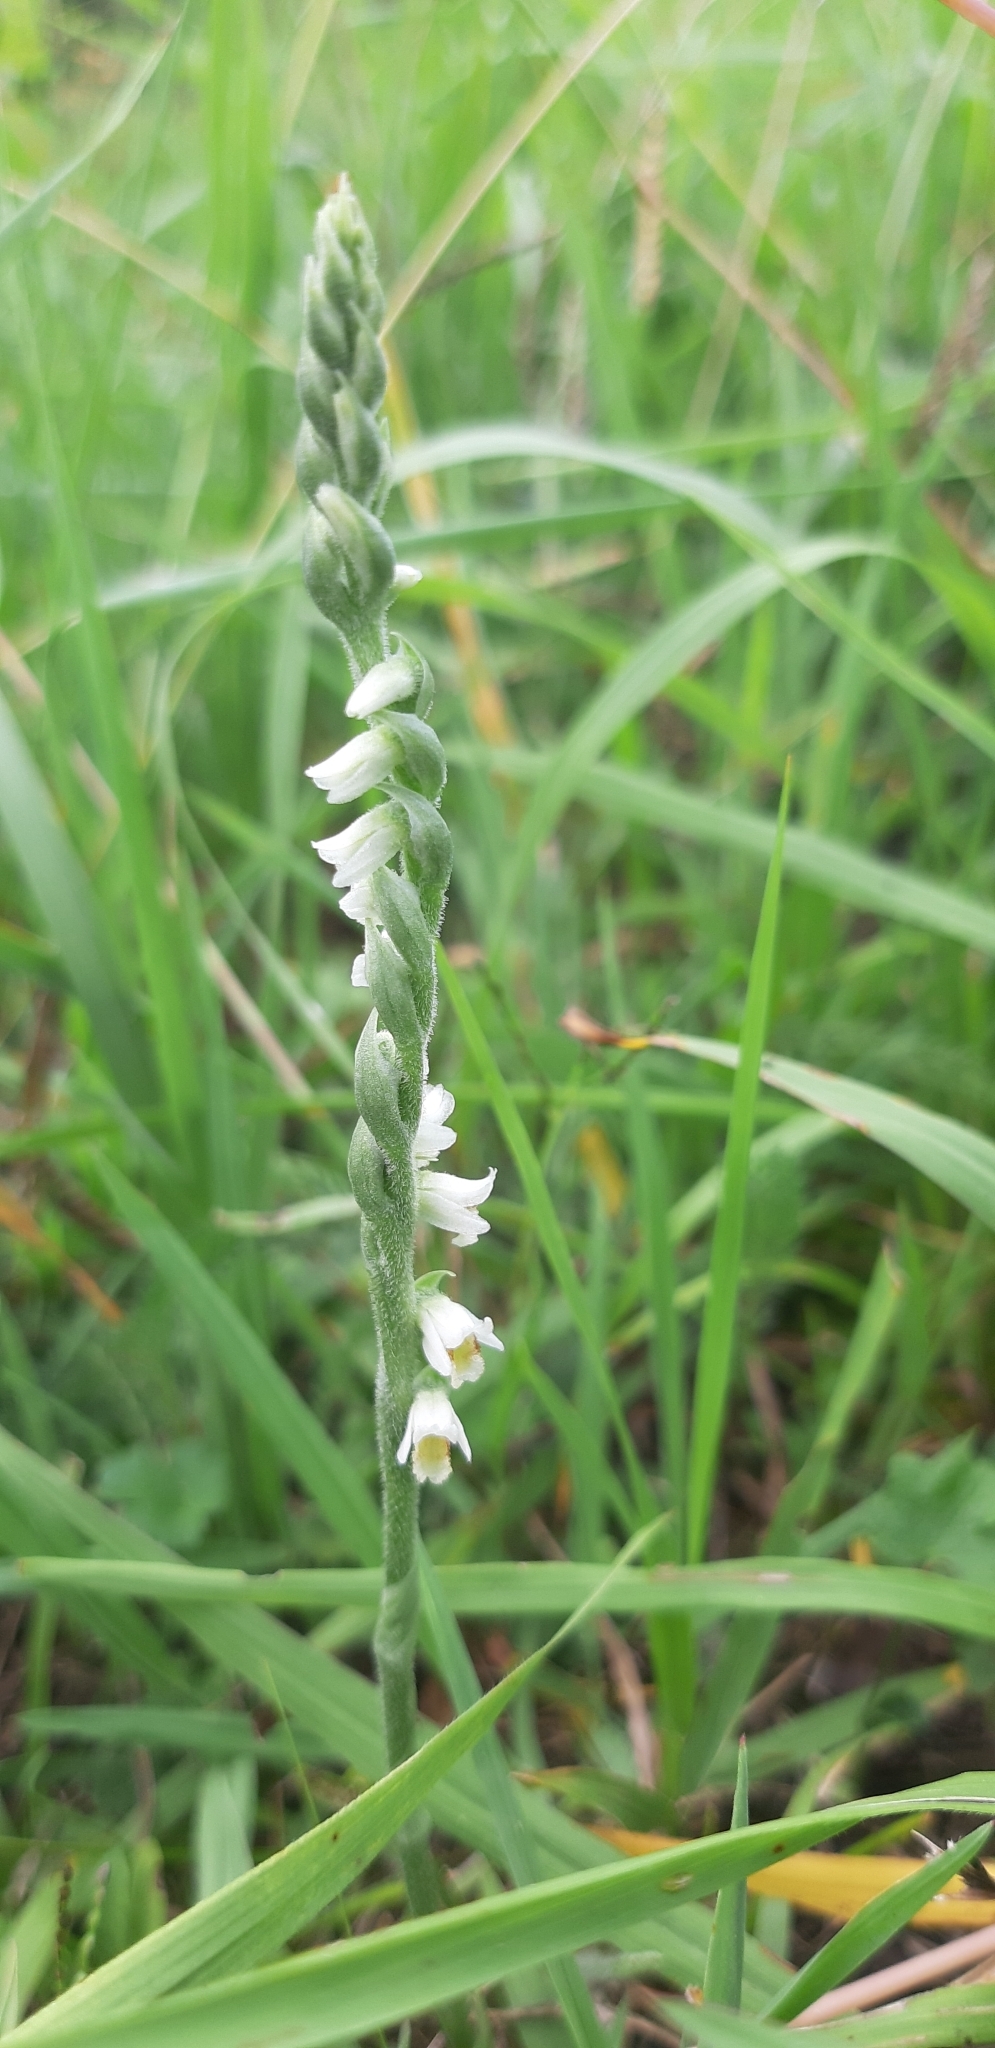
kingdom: Plantae
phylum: Tracheophyta
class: Liliopsida
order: Asparagales
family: Orchidaceae
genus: Spiranthes
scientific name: Spiranthes spiralis
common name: Autumn lady's-tresses
